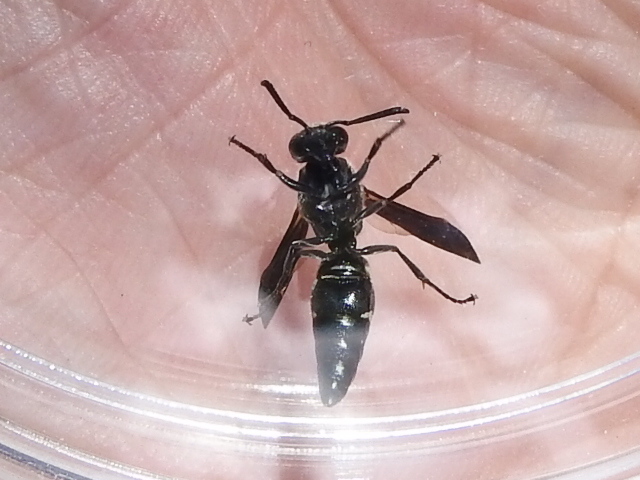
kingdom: Animalia
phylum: Arthropoda
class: Insecta
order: Hymenoptera
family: Eumenidae
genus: Euodynerus
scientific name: Euodynerus megaera
